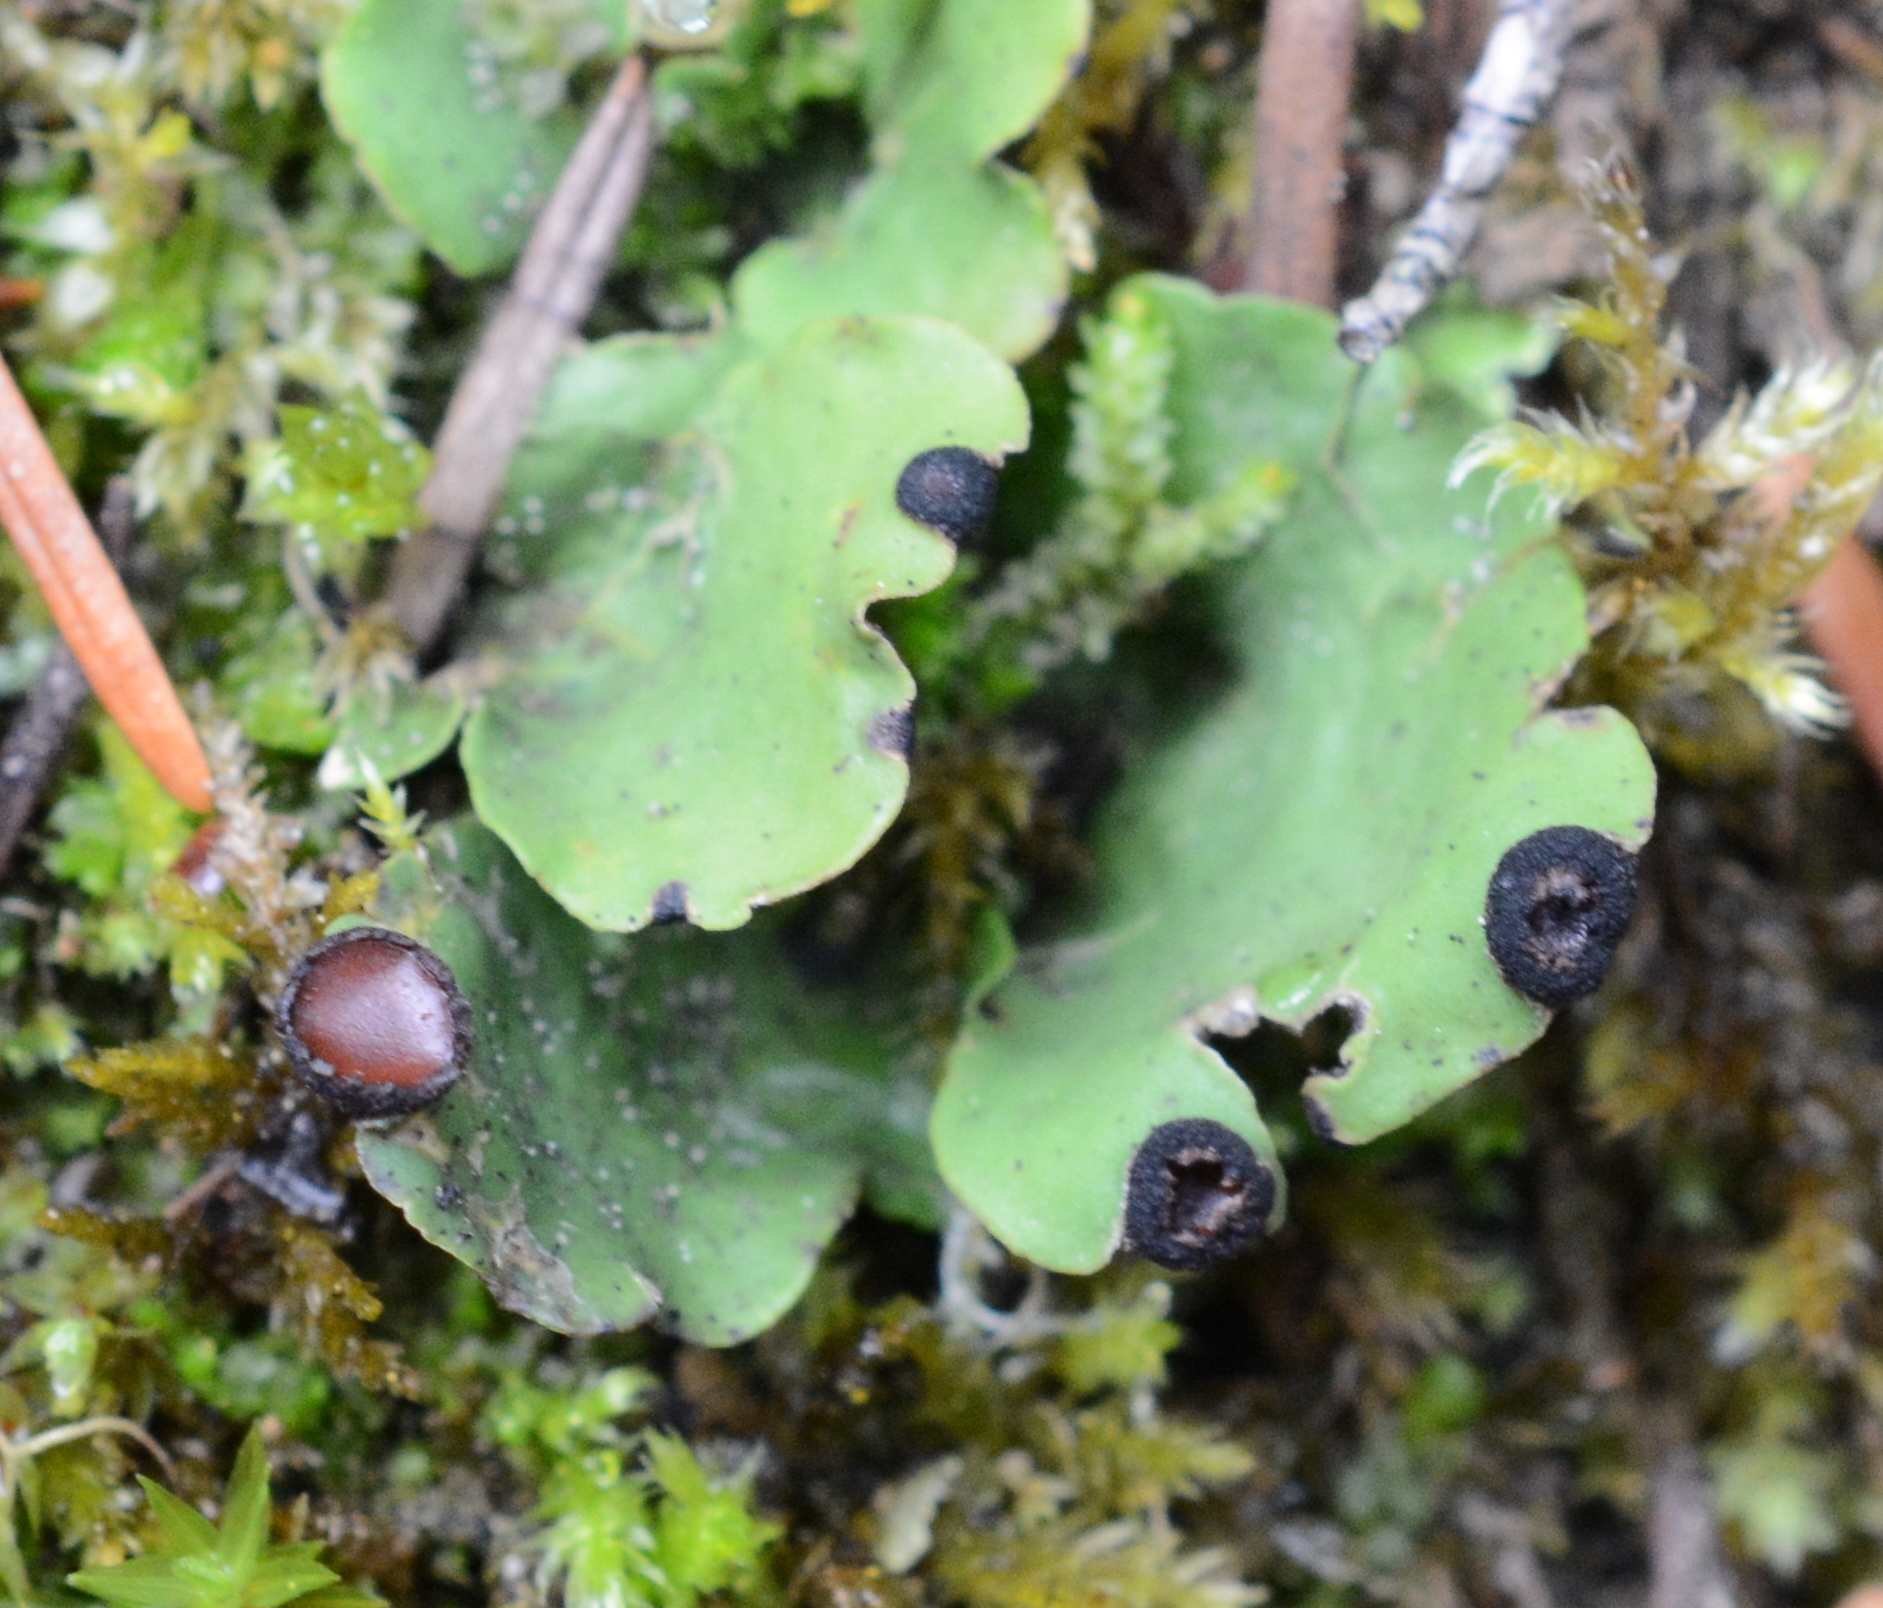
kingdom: Fungi
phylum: Ascomycota
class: Lecanoromycetes
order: Peltigerales
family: Peltigeraceae
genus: Peltigera
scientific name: Peltigera venosa
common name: Pixie gowns lichen
